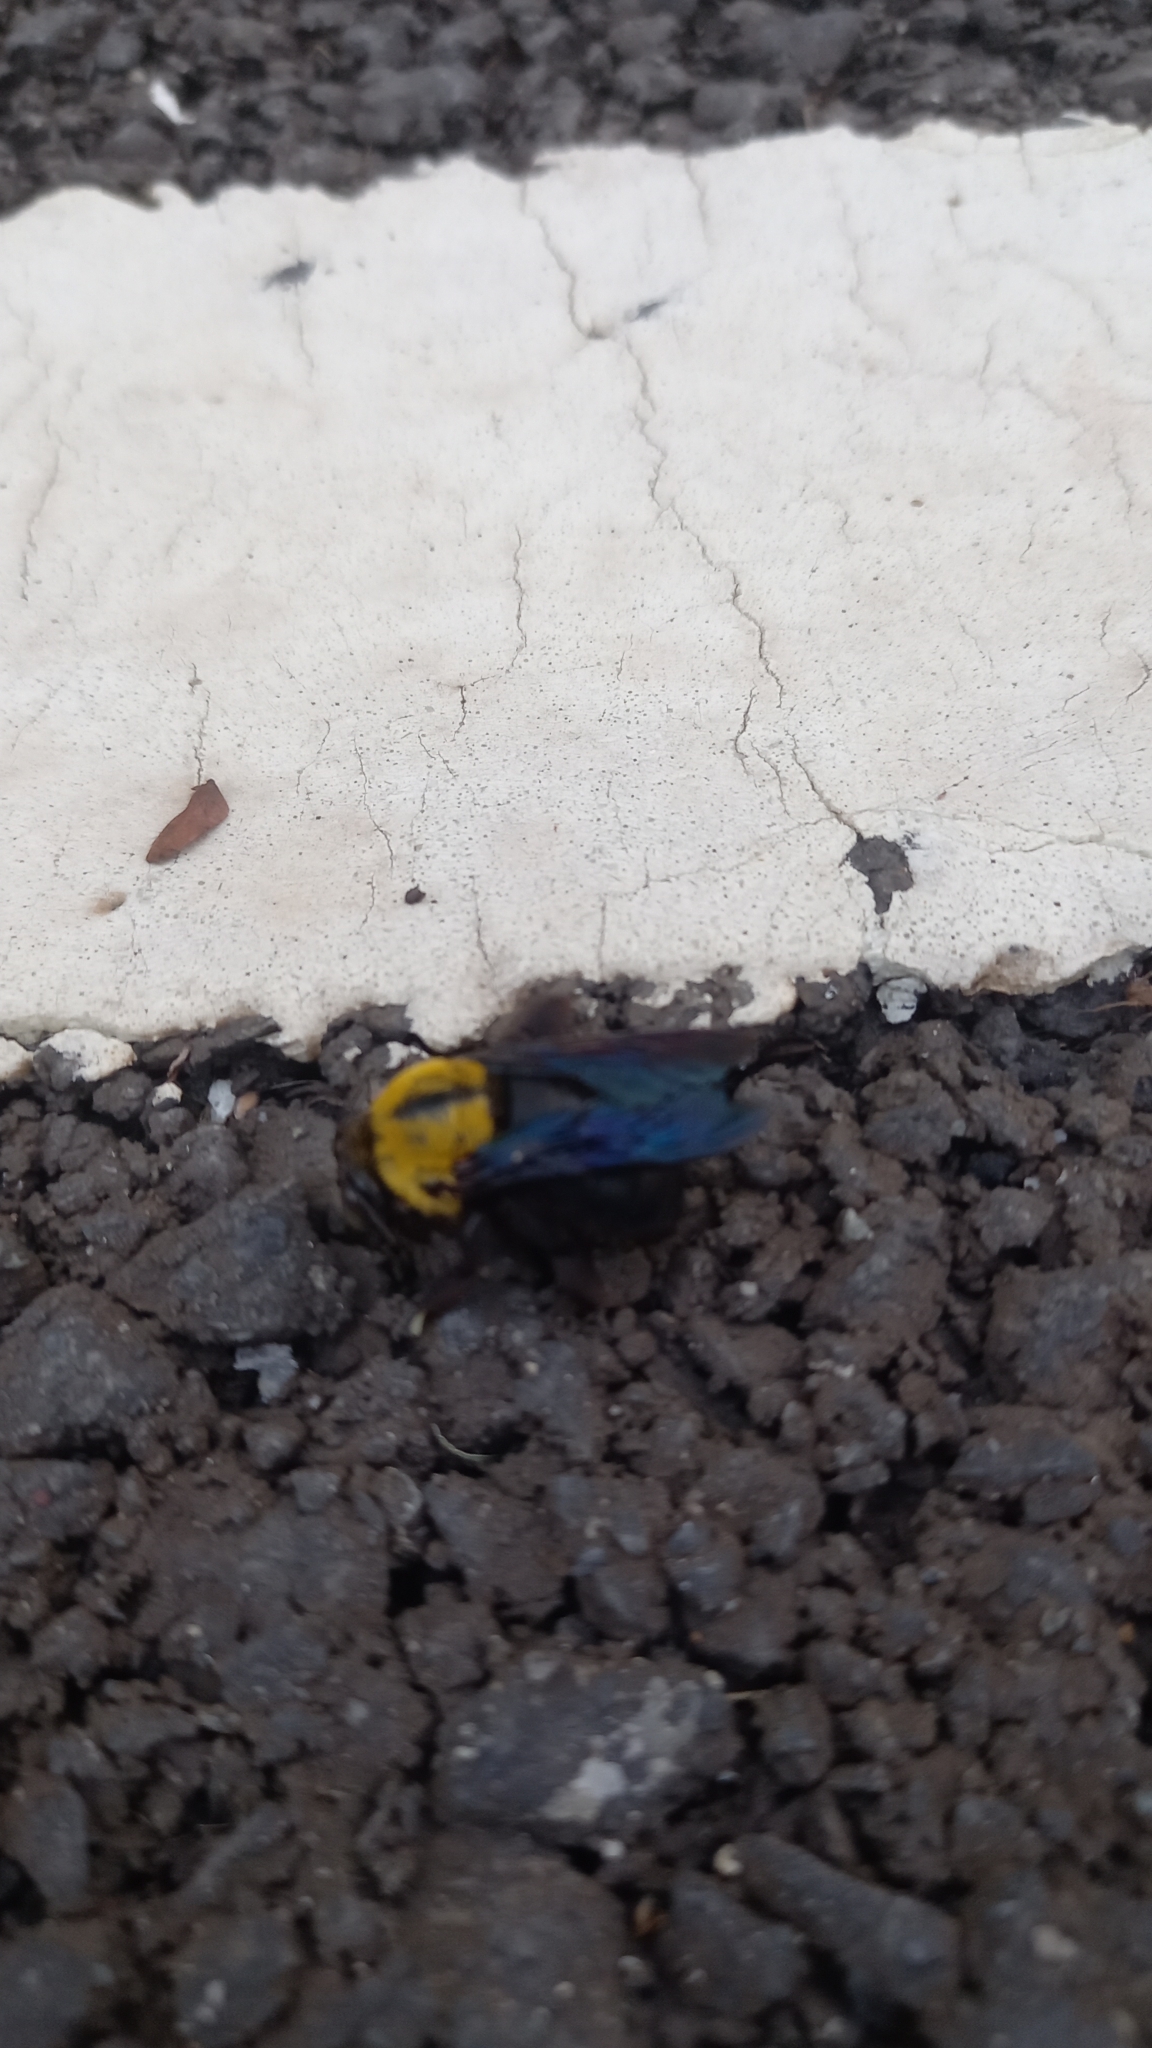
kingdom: Animalia
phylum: Arthropoda
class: Insecta
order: Hymenoptera
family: Apidae
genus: Xylocopa
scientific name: Xylocopa minor
